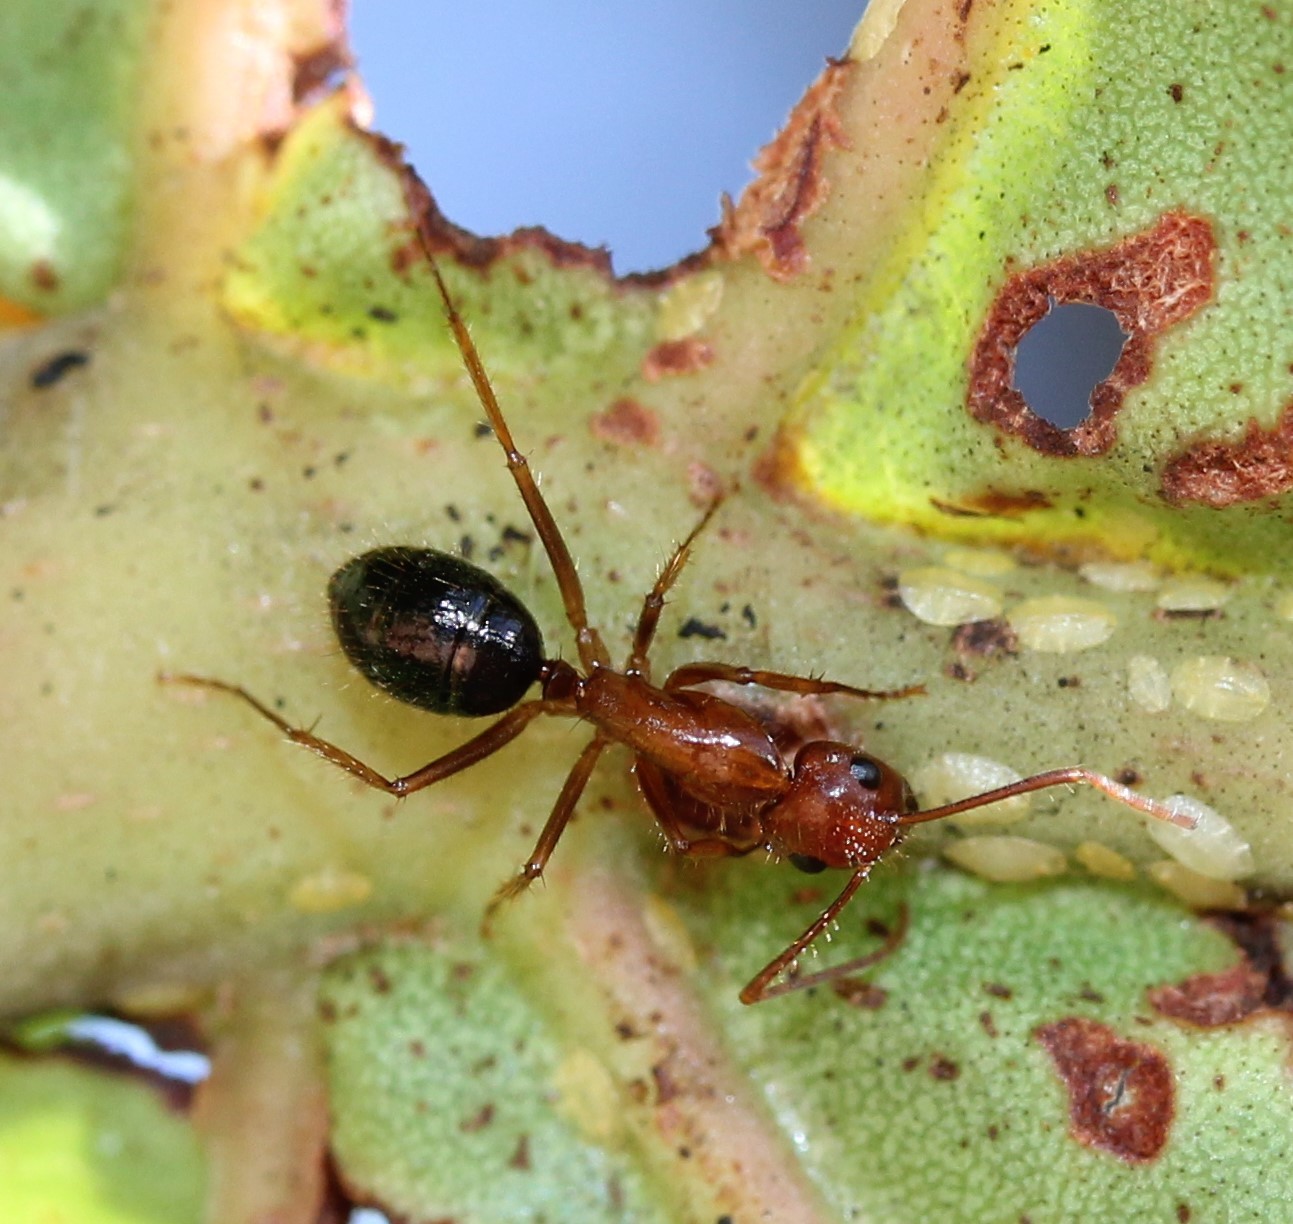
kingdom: Animalia
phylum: Arthropoda
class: Insecta
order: Hymenoptera
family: Formicidae
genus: Camponotus
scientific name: Camponotus floridanus
